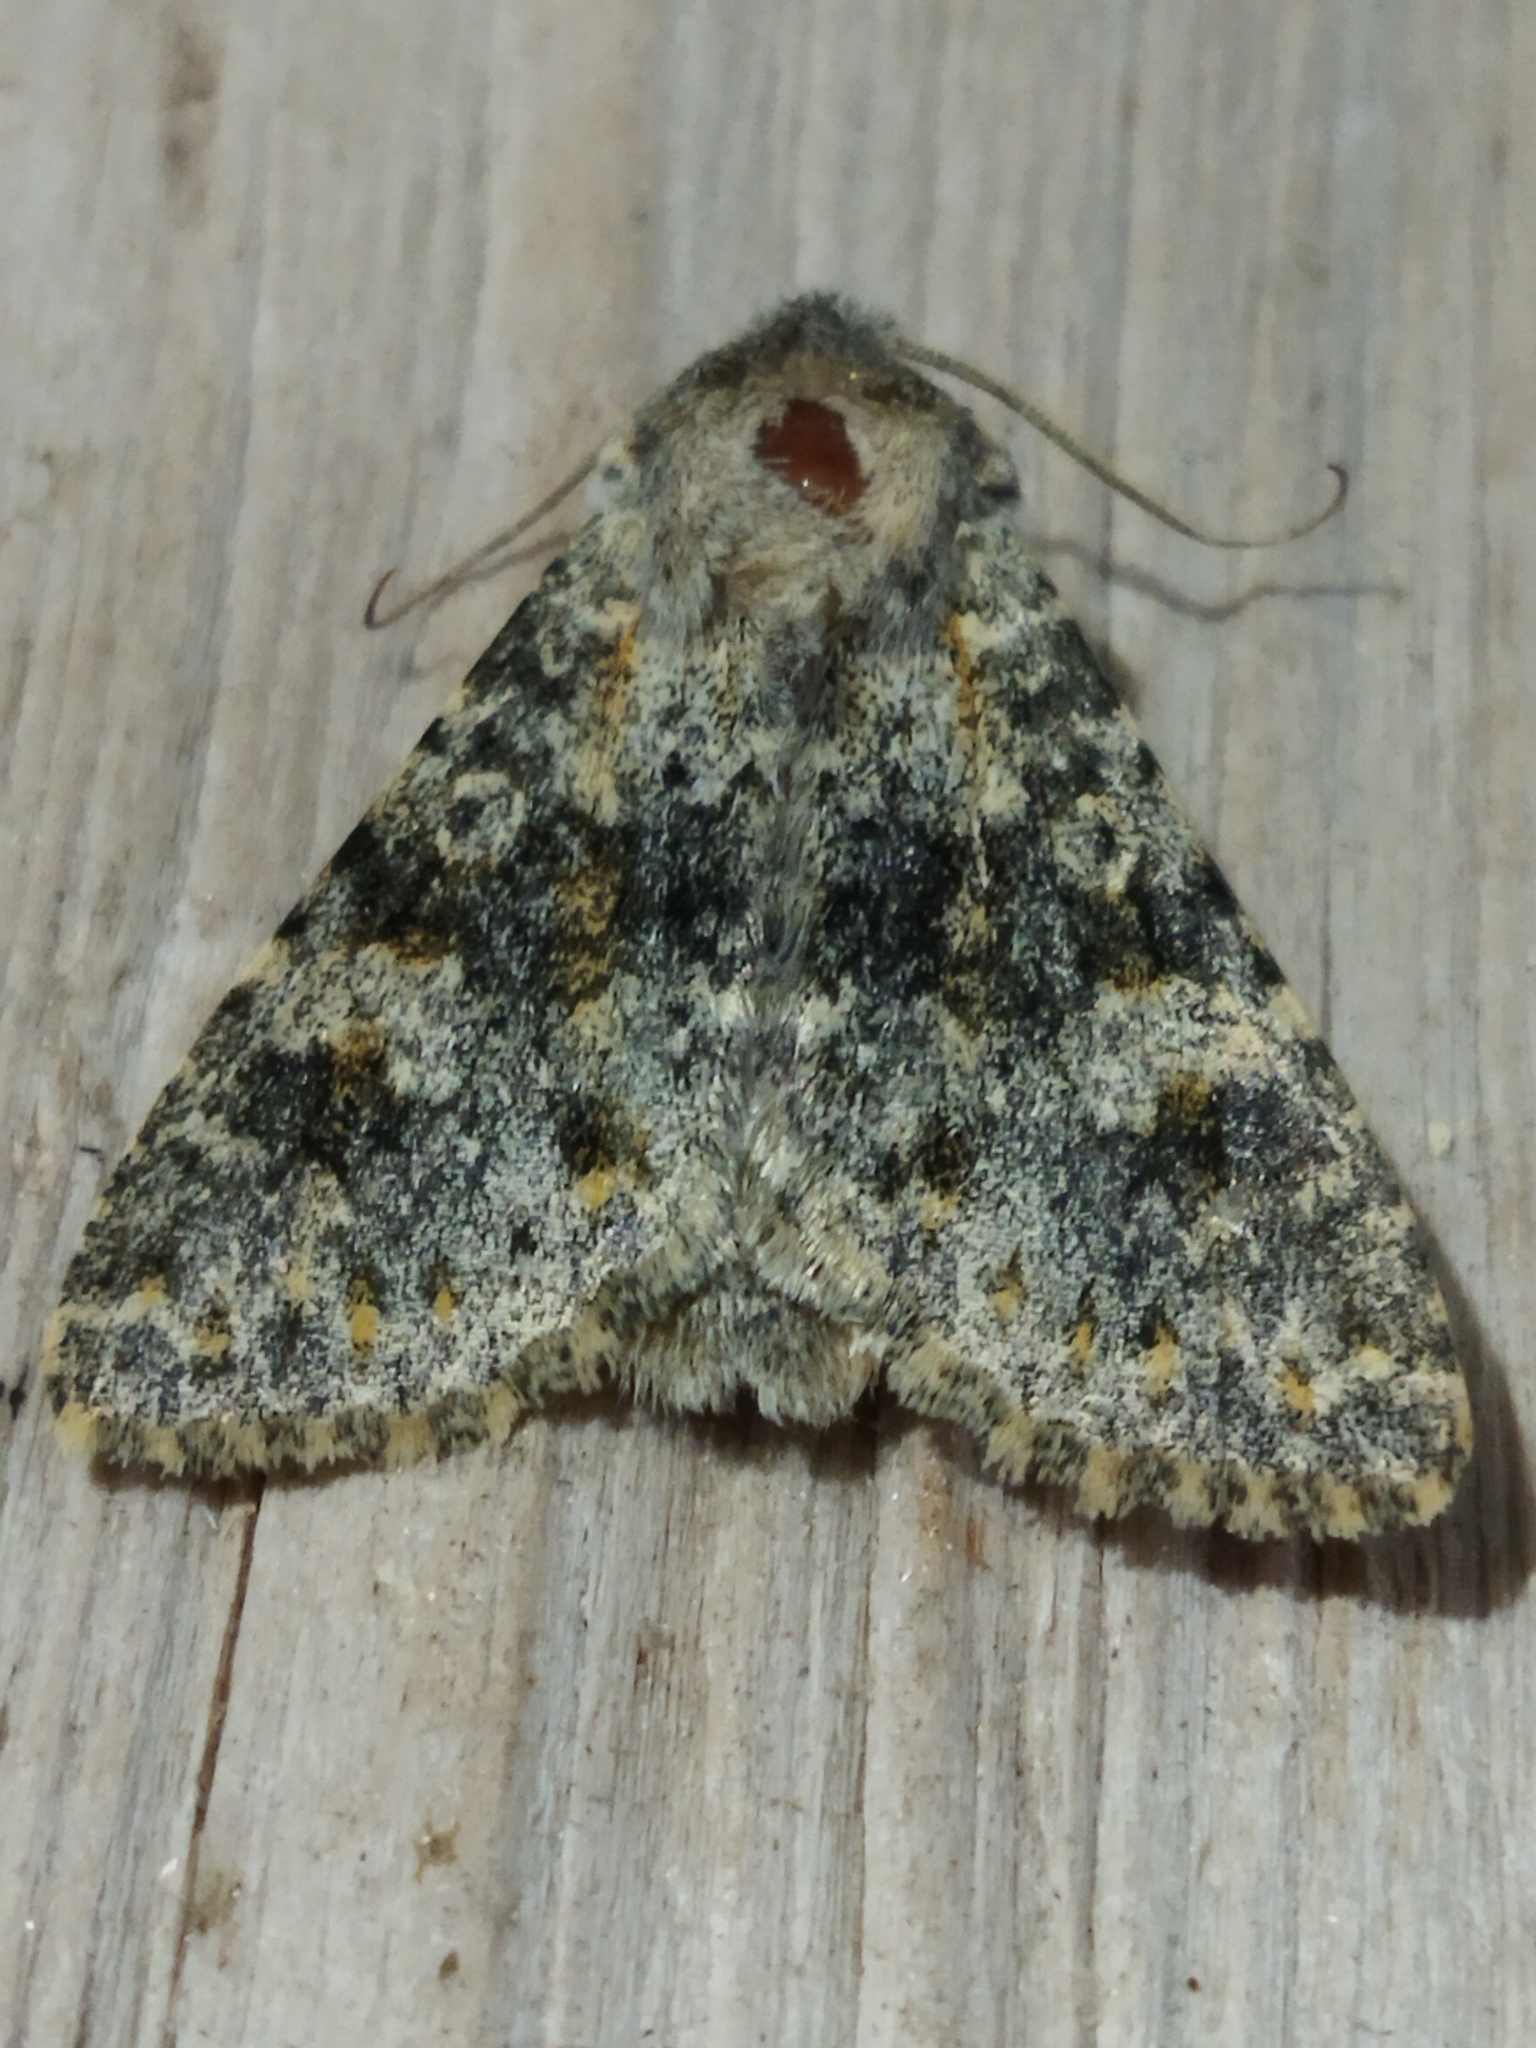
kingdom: Animalia
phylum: Arthropoda
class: Insecta
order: Lepidoptera
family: Noctuidae
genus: Polymixis
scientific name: Polymixis rufocincta
